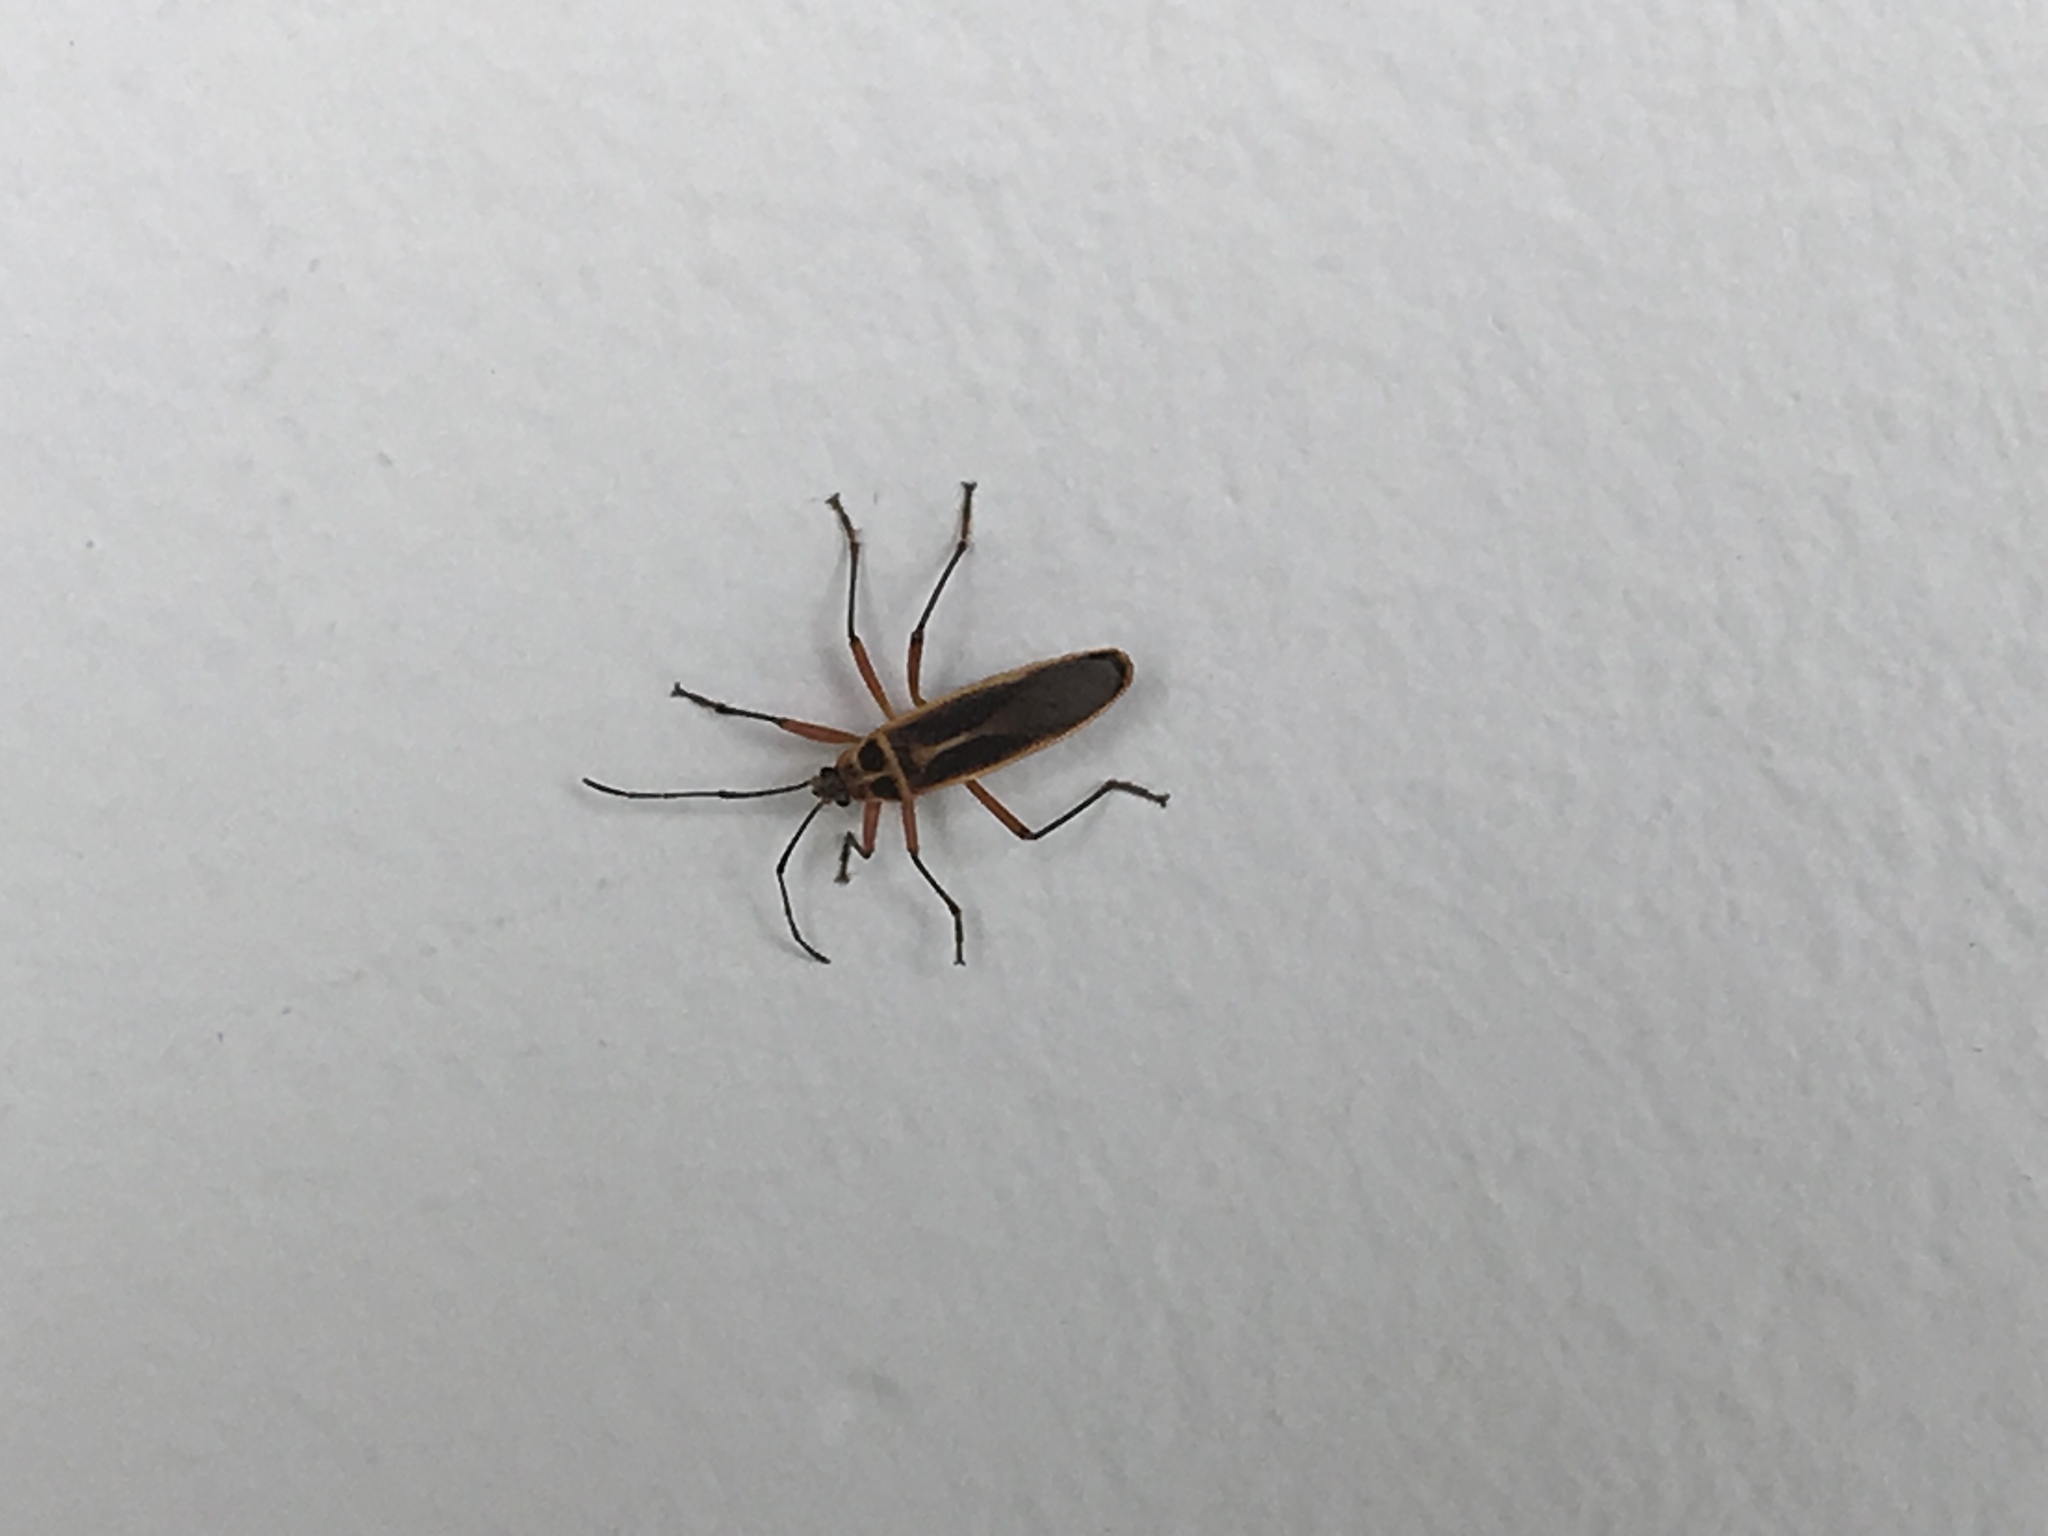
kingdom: Animalia
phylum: Arthropoda
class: Insecta
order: Hemiptera
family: Largidae
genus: Stenomacra
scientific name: Stenomacra marginella
